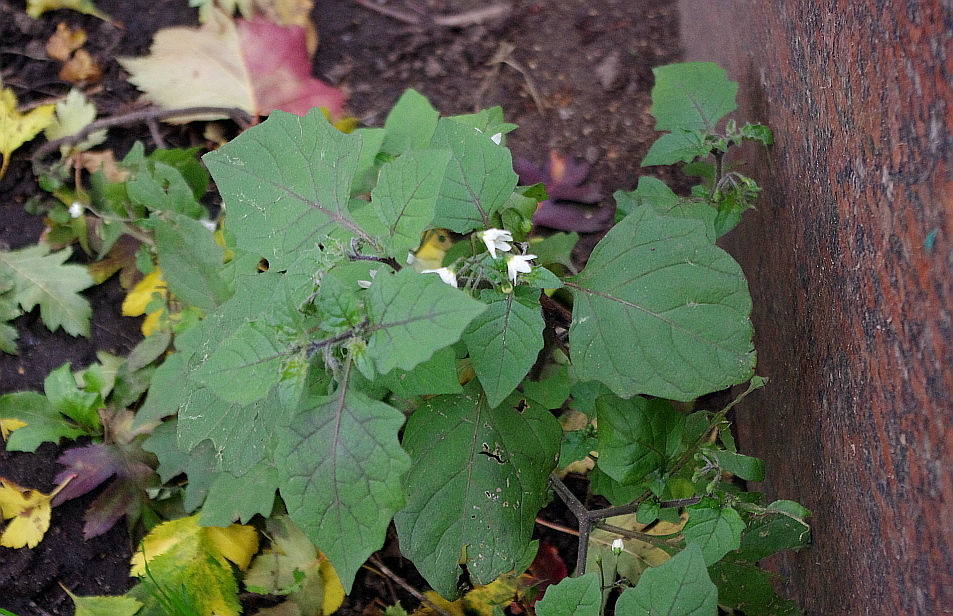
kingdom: Plantae
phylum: Tracheophyta
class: Magnoliopsida
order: Solanales
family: Solanaceae
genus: Solanum
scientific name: Solanum nigrum
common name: Black nightshade
